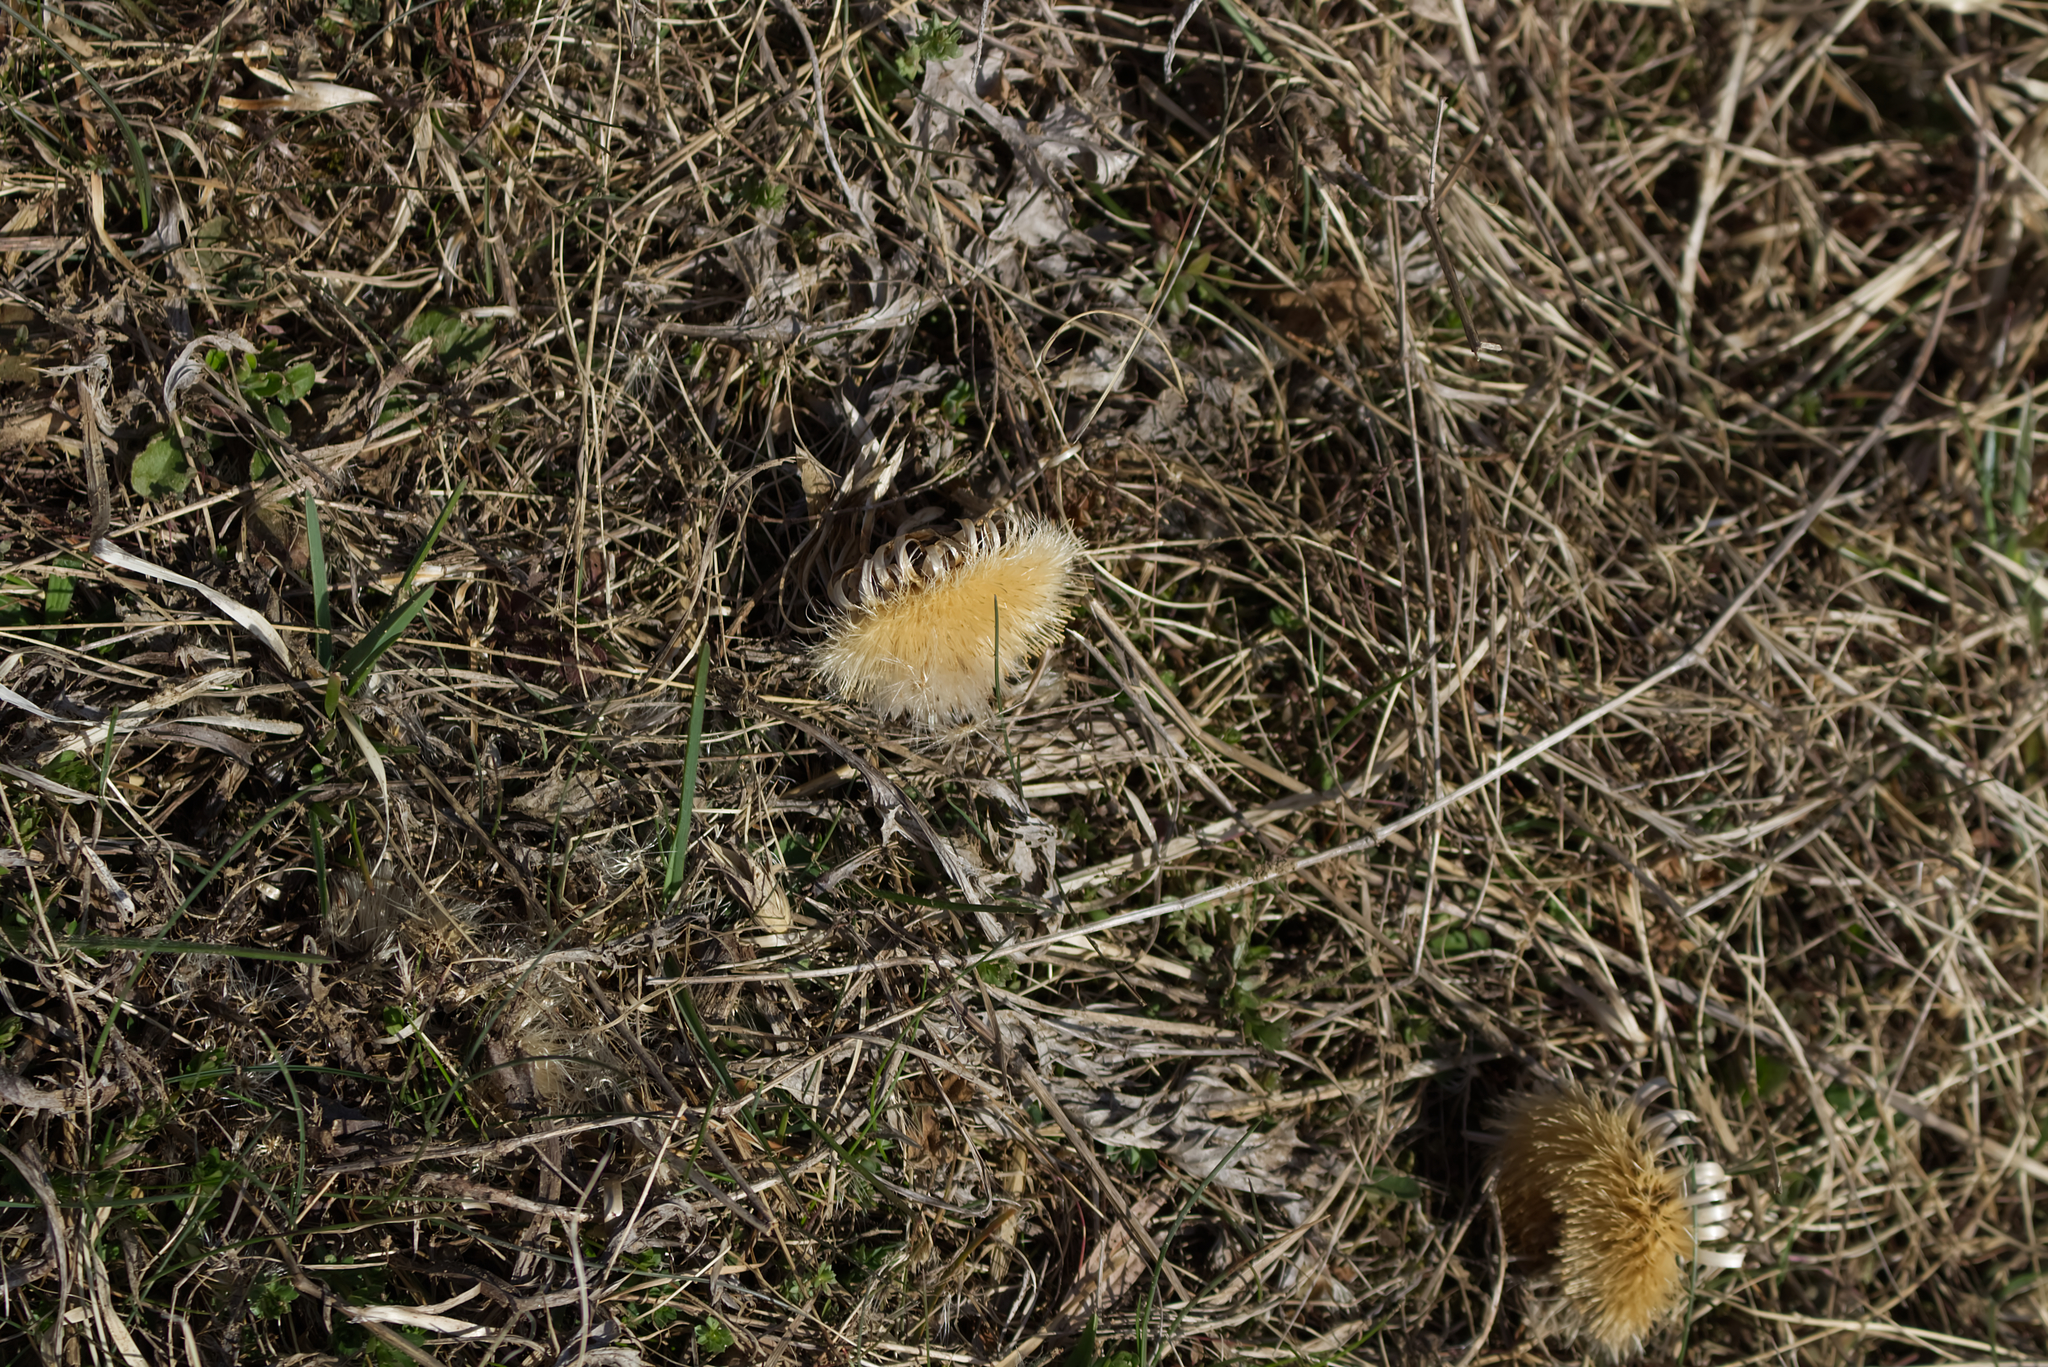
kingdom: Plantae
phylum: Tracheophyta
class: Magnoliopsida
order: Asterales
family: Asteraceae
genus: Carlina
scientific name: Carlina acaulis
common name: Stemless carline thistle
